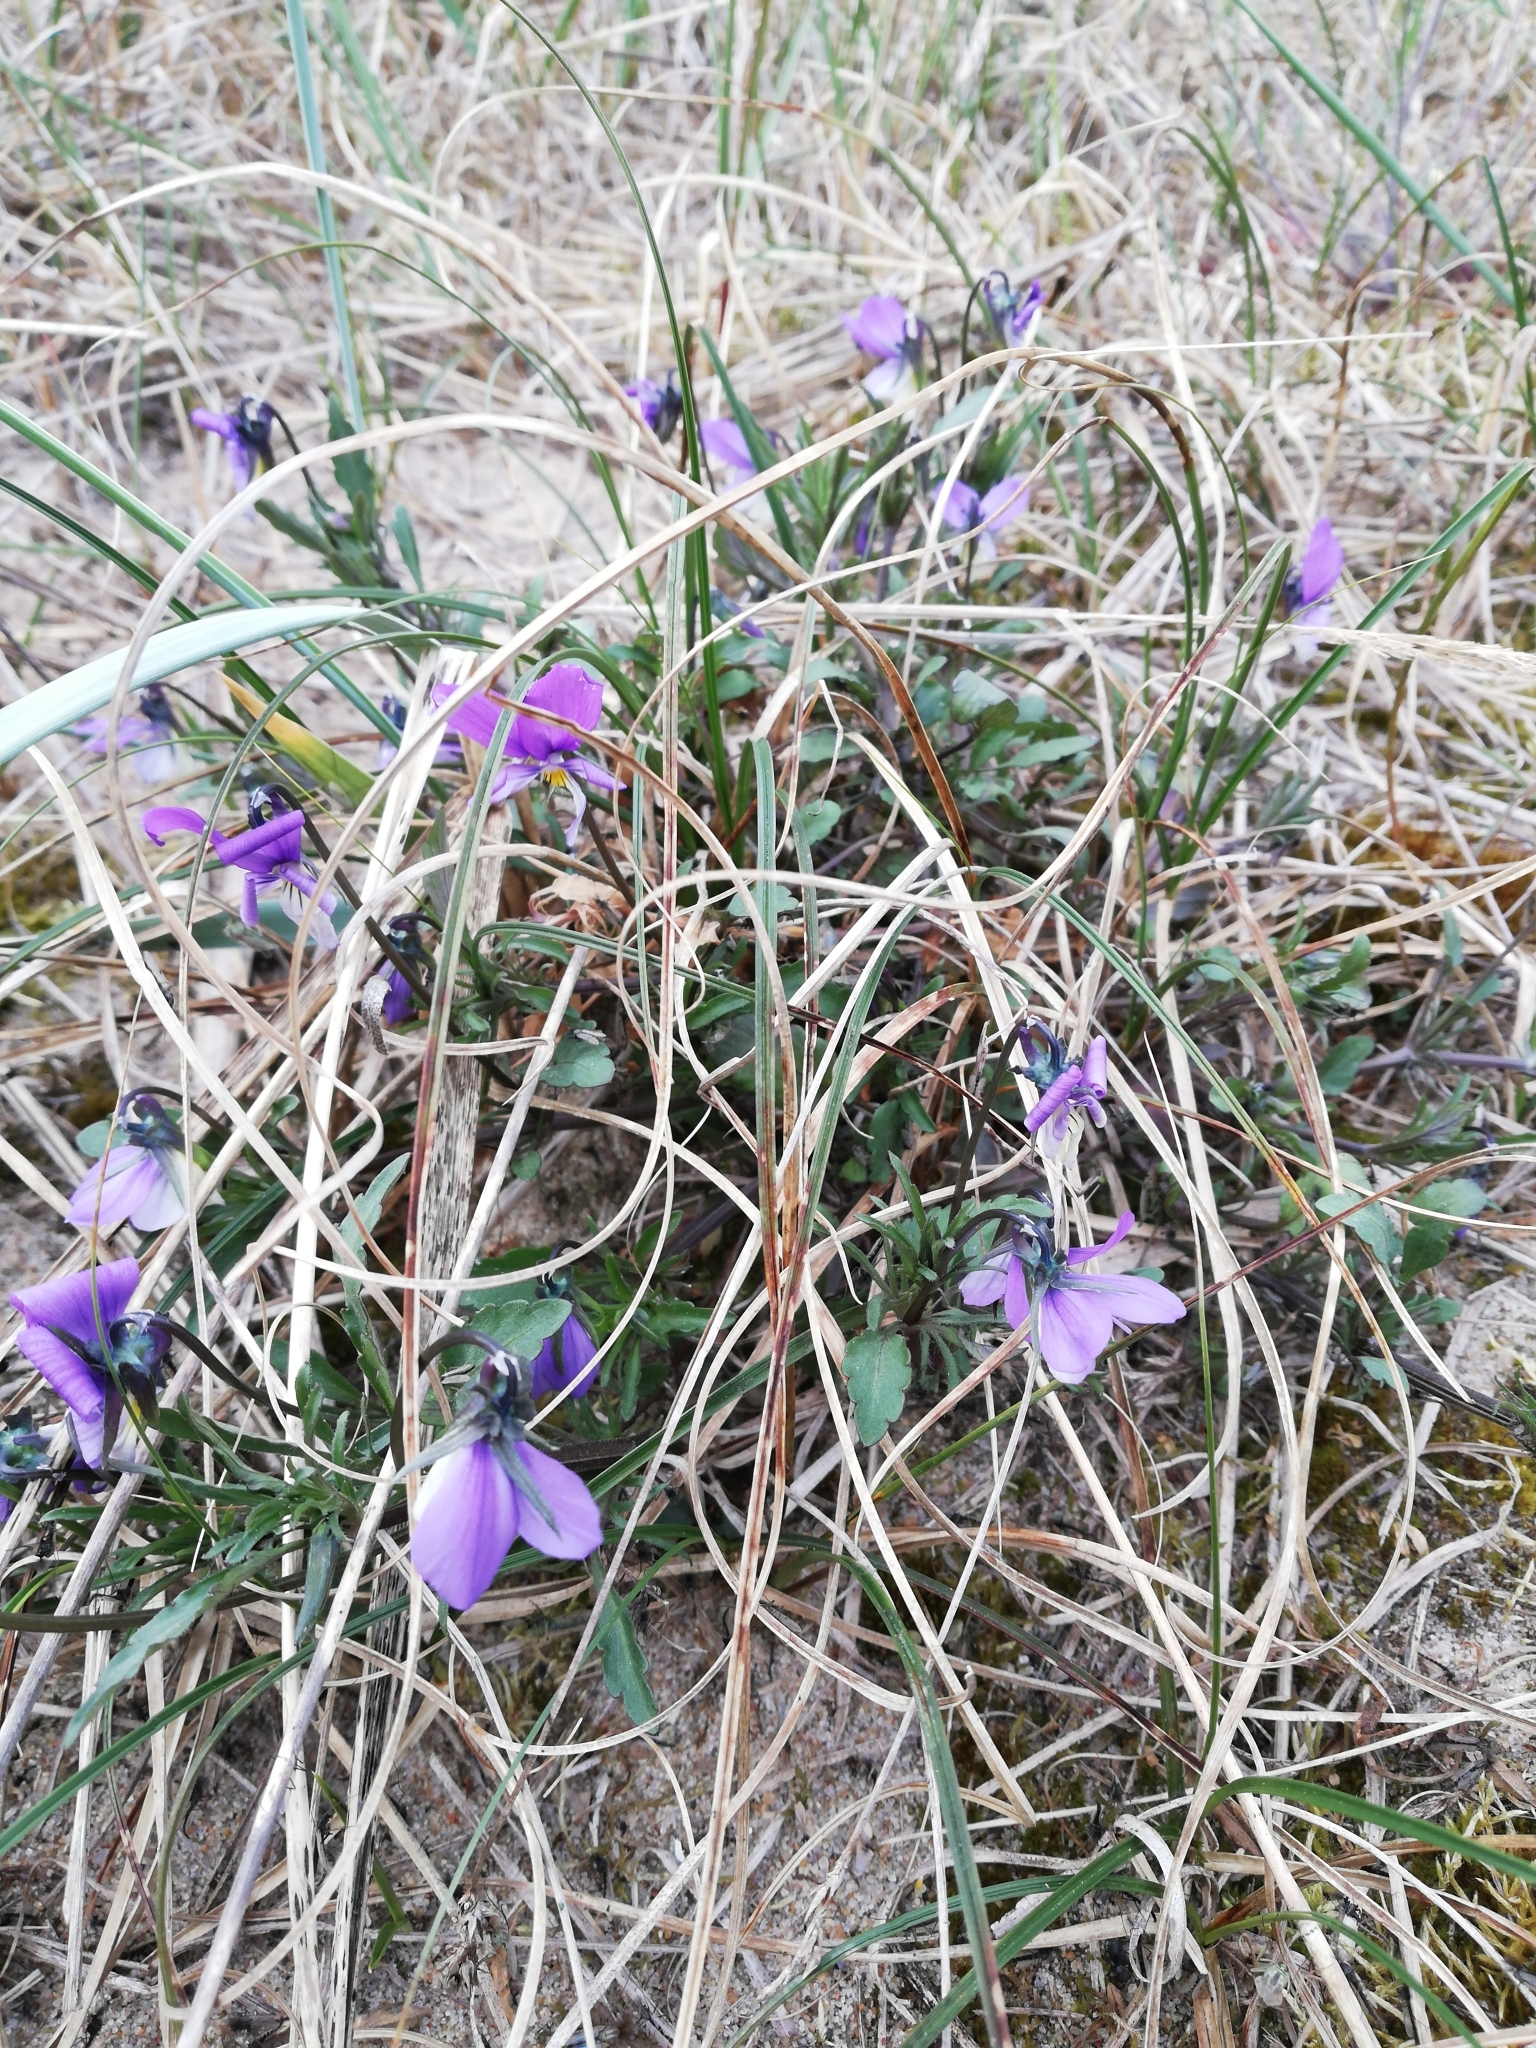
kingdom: Plantae
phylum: Tracheophyta
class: Magnoliopsida
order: Malpighiales
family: Violaceae
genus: Viola
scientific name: Viola tricolor
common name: Pansy
